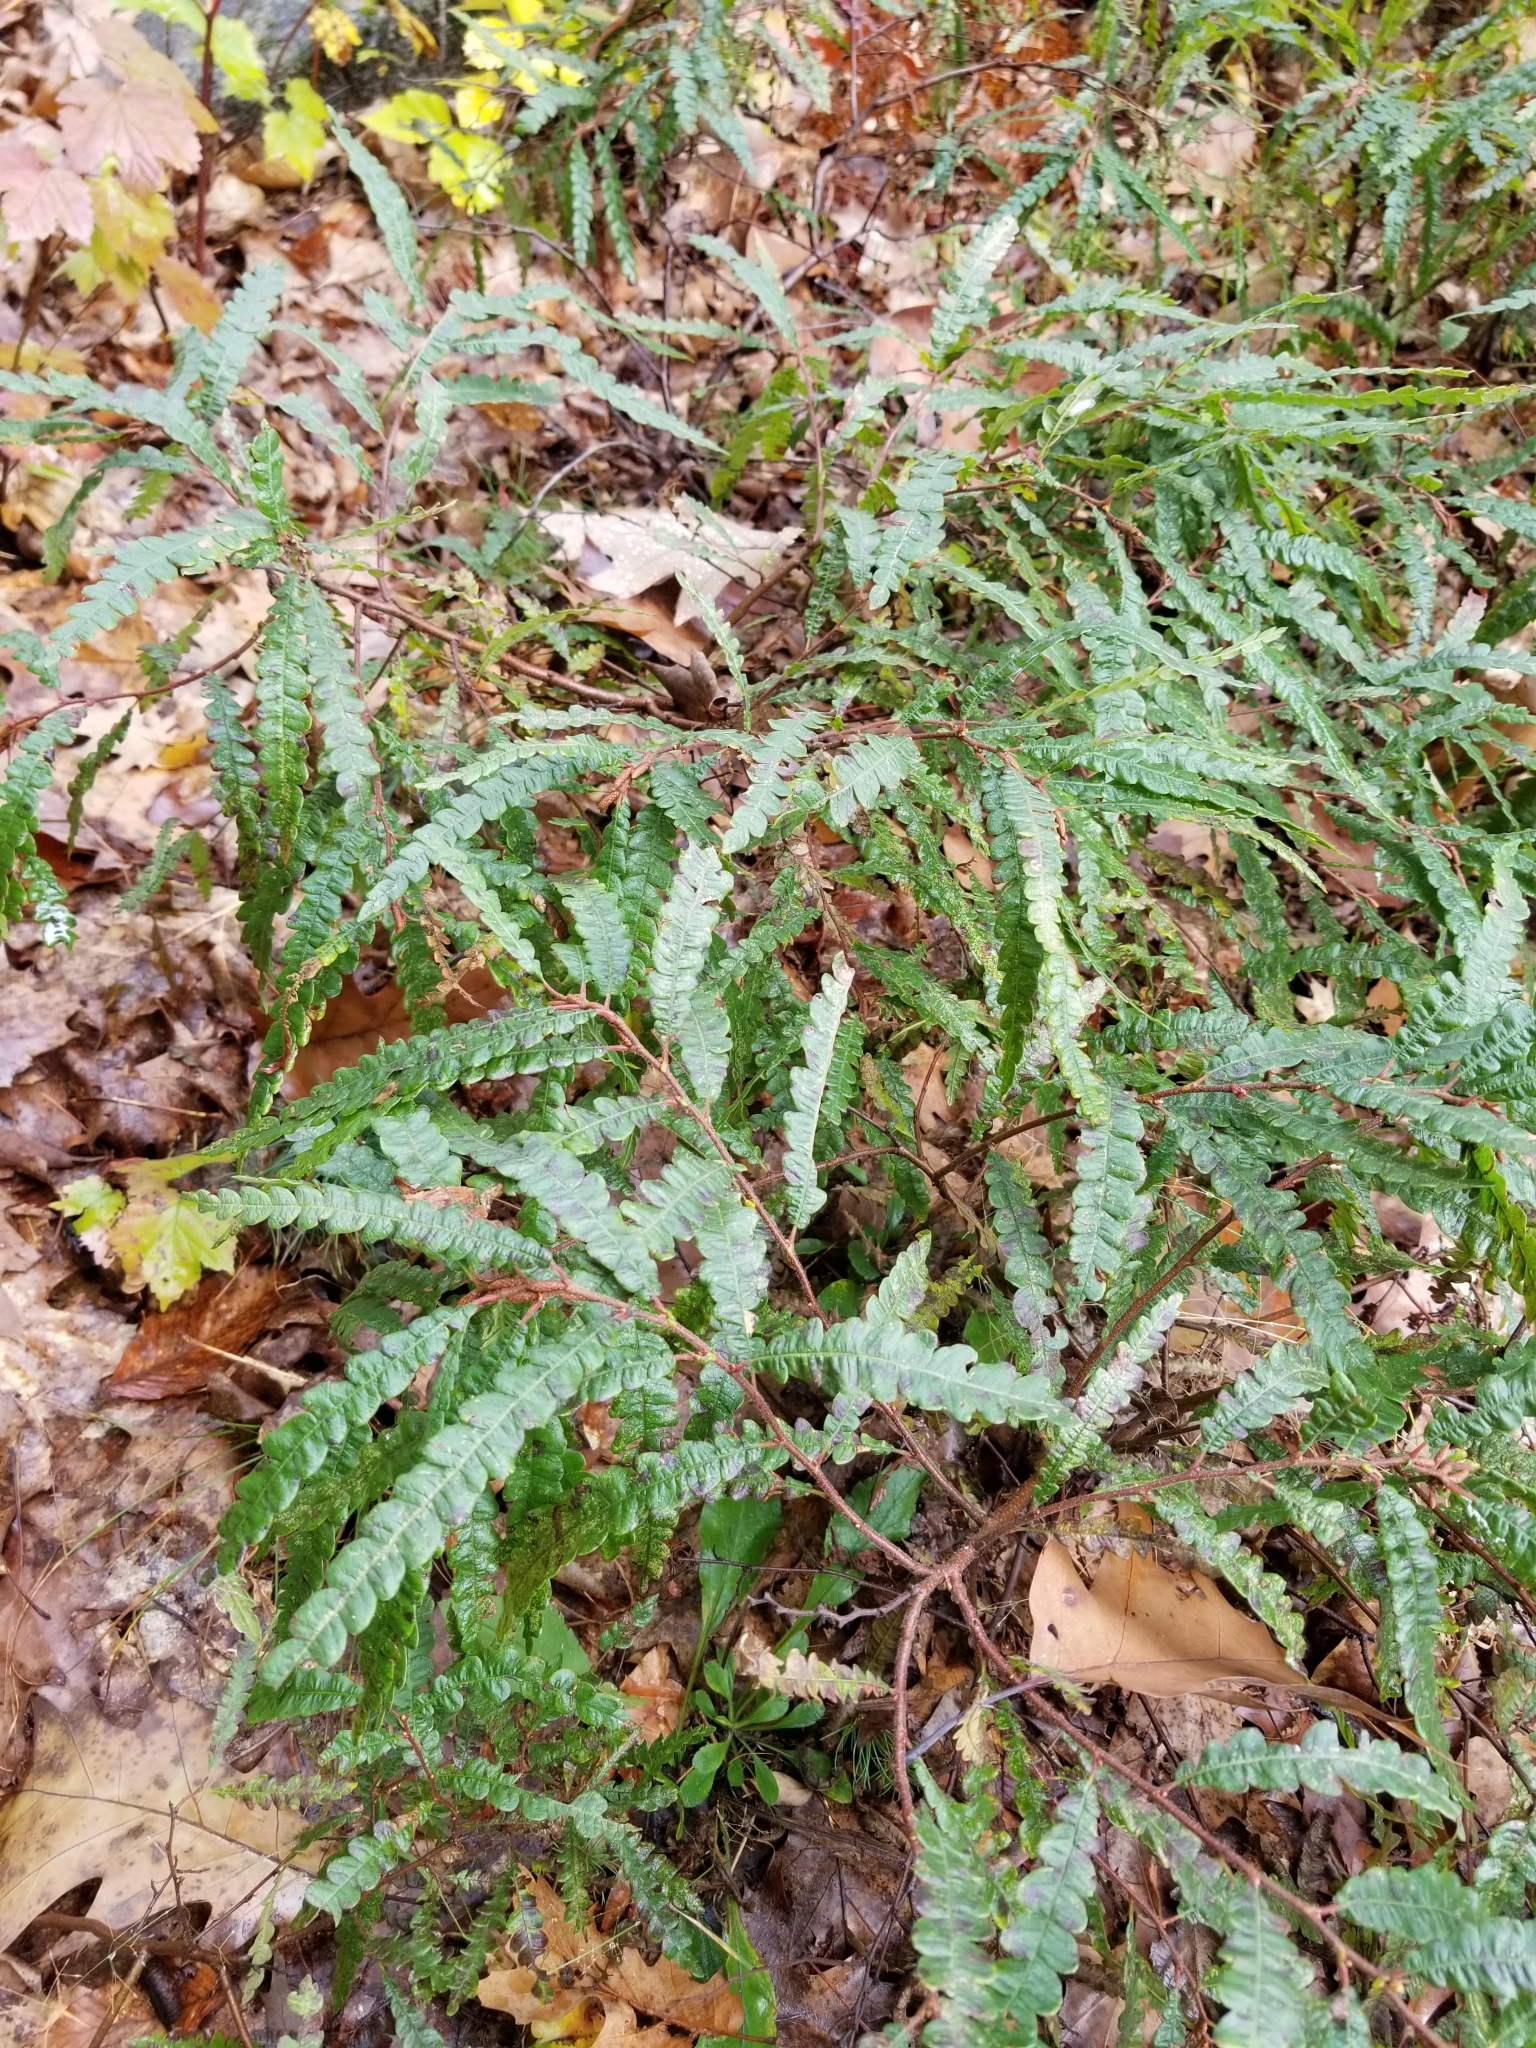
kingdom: Plantae
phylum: Tracheophyta
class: Magnoliopsida
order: Fagales
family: Myricaceae
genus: Comptonia
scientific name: Comptonia peregrina
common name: Sweet-fern
